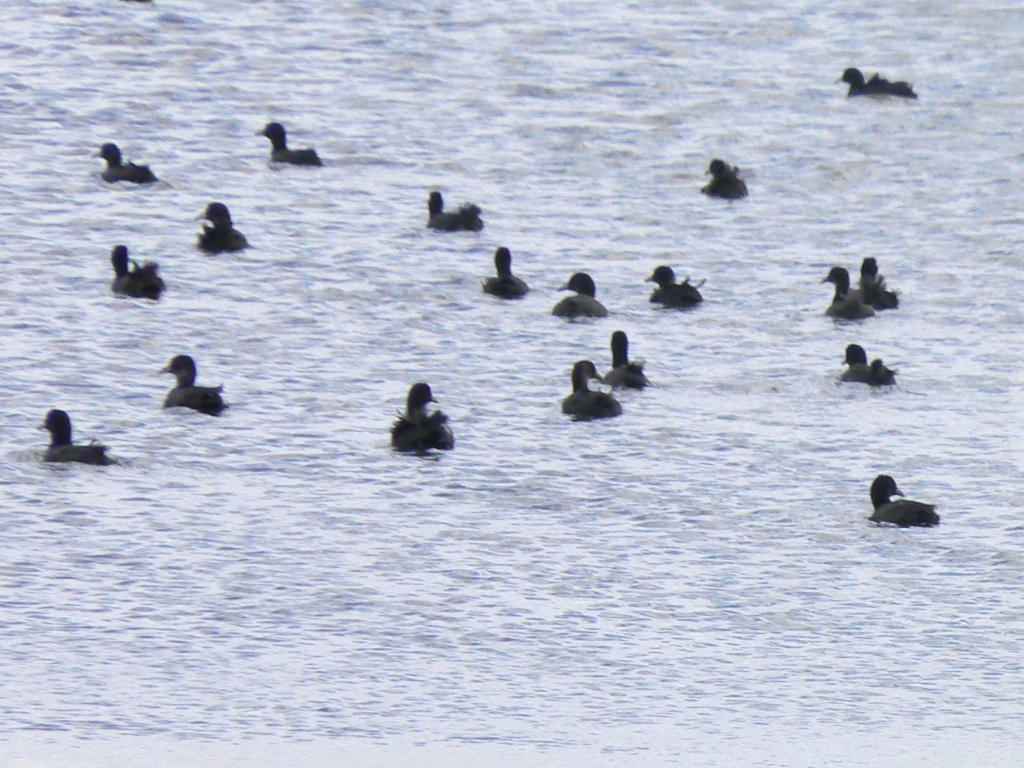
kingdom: Animalia
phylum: Chordata
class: Aves
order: Gruiformes
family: Rallidae
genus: Fulica
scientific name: Fulica atra
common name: Eurasian coot
